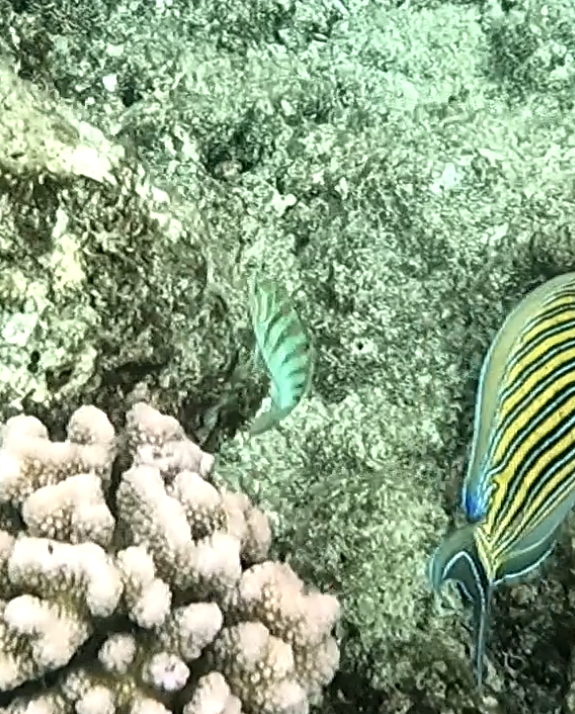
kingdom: Animalia
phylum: Chordata
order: Perciformes
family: Labridae
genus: Thalassoma
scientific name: Thalassoma hardwicke
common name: Sixbar wrasse
